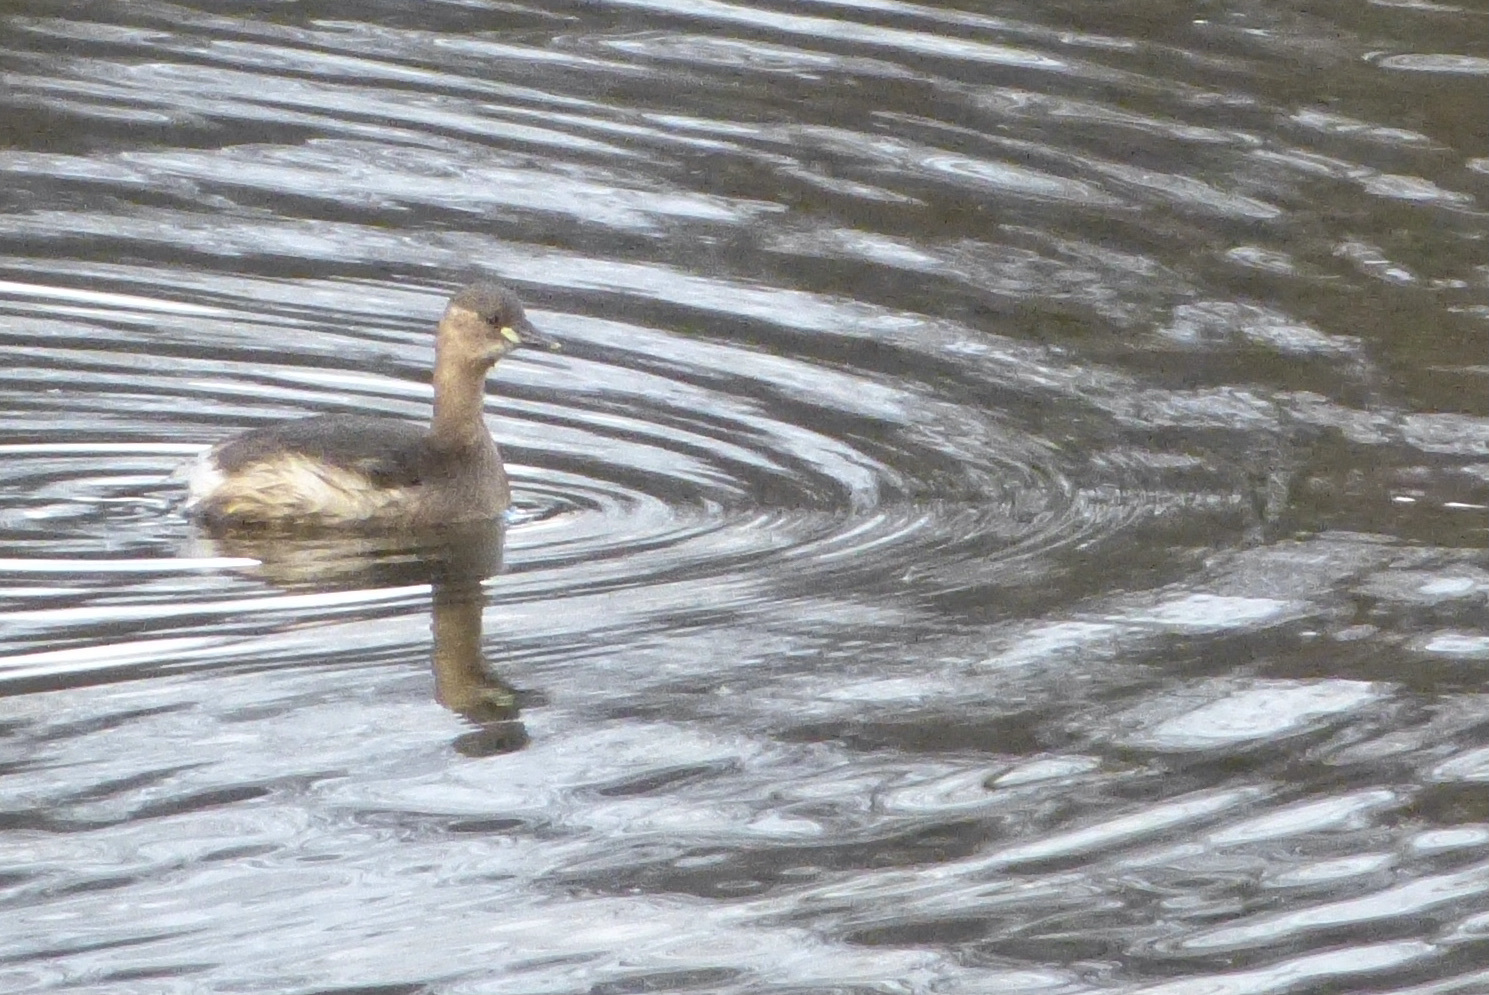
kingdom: Animalia
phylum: Chordata
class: Aves
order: Podicipediformes
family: Podicipedidae
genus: Tachybaptus
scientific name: Tachybaptus ruficollis
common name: Little grebe
